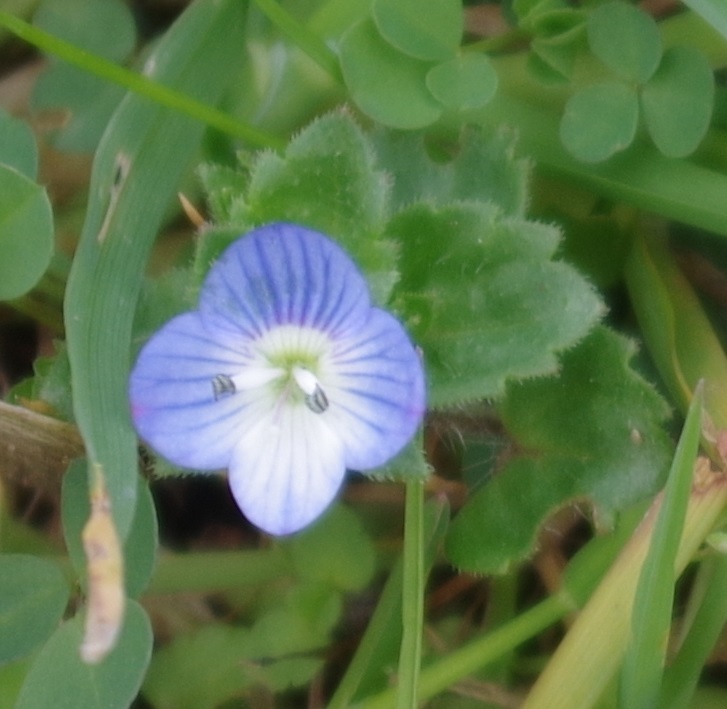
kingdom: Plantae
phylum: Tracheophyta
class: Magnoliopsida
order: Lamiales
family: Plantaginaceae
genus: Veronica
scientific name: Veronica persica
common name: Common field-speedwell
